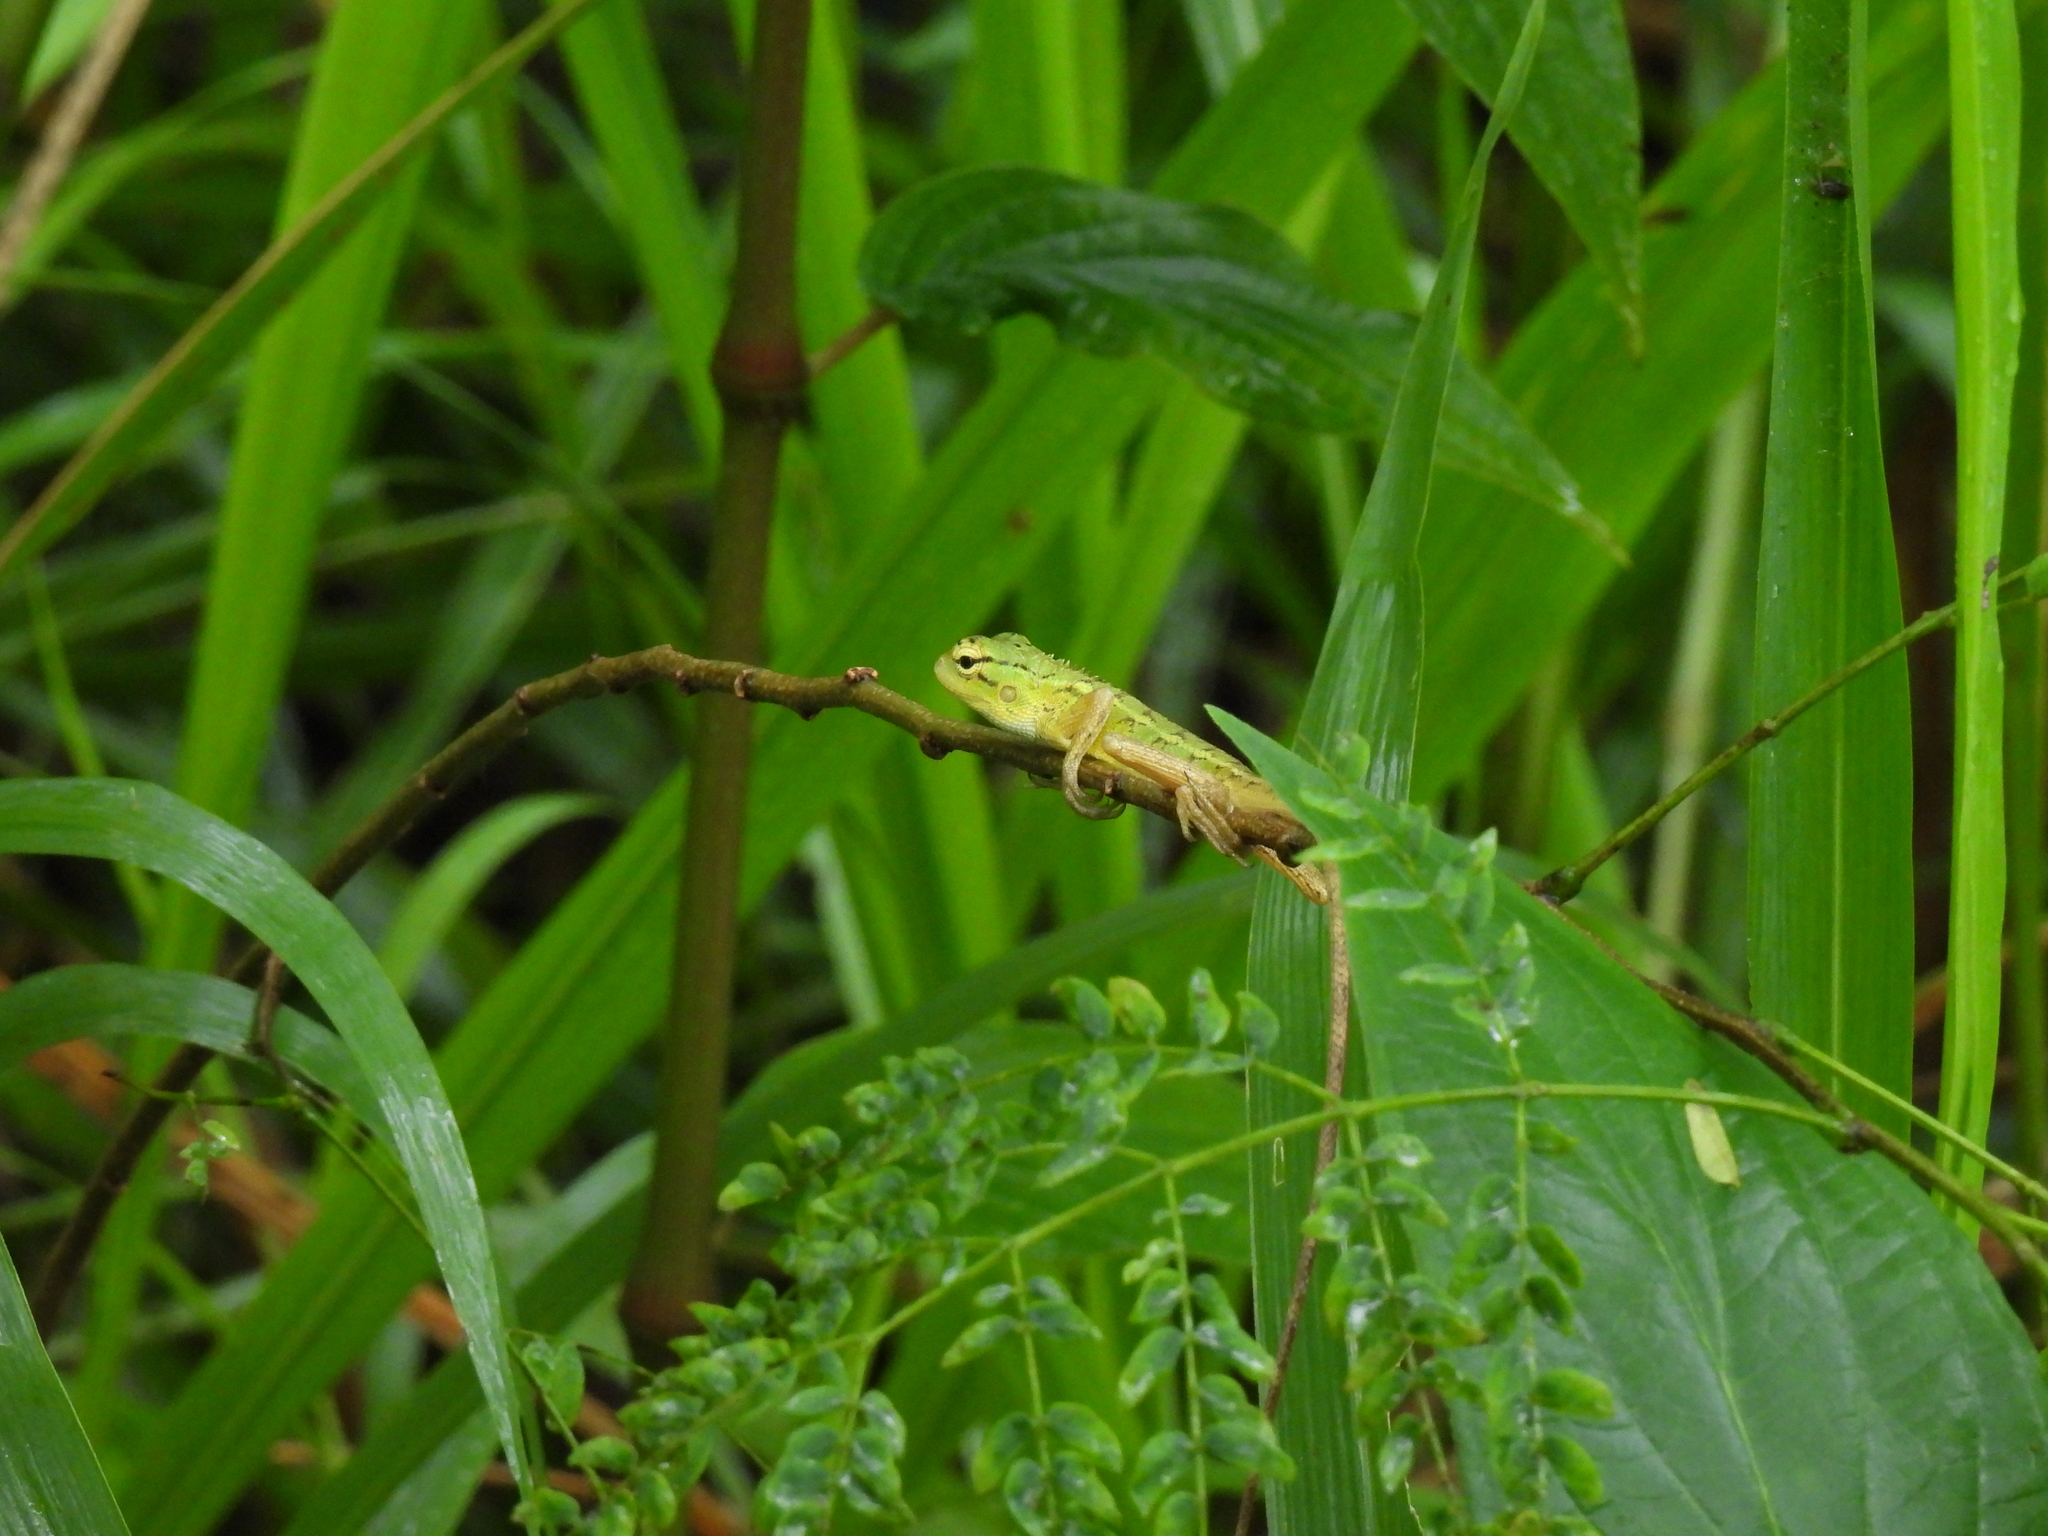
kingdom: Animalia
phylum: Chordata
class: Squamata
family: Agamidae
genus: Calotes
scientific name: Calotes versicolor
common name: Oriental garden lizard
